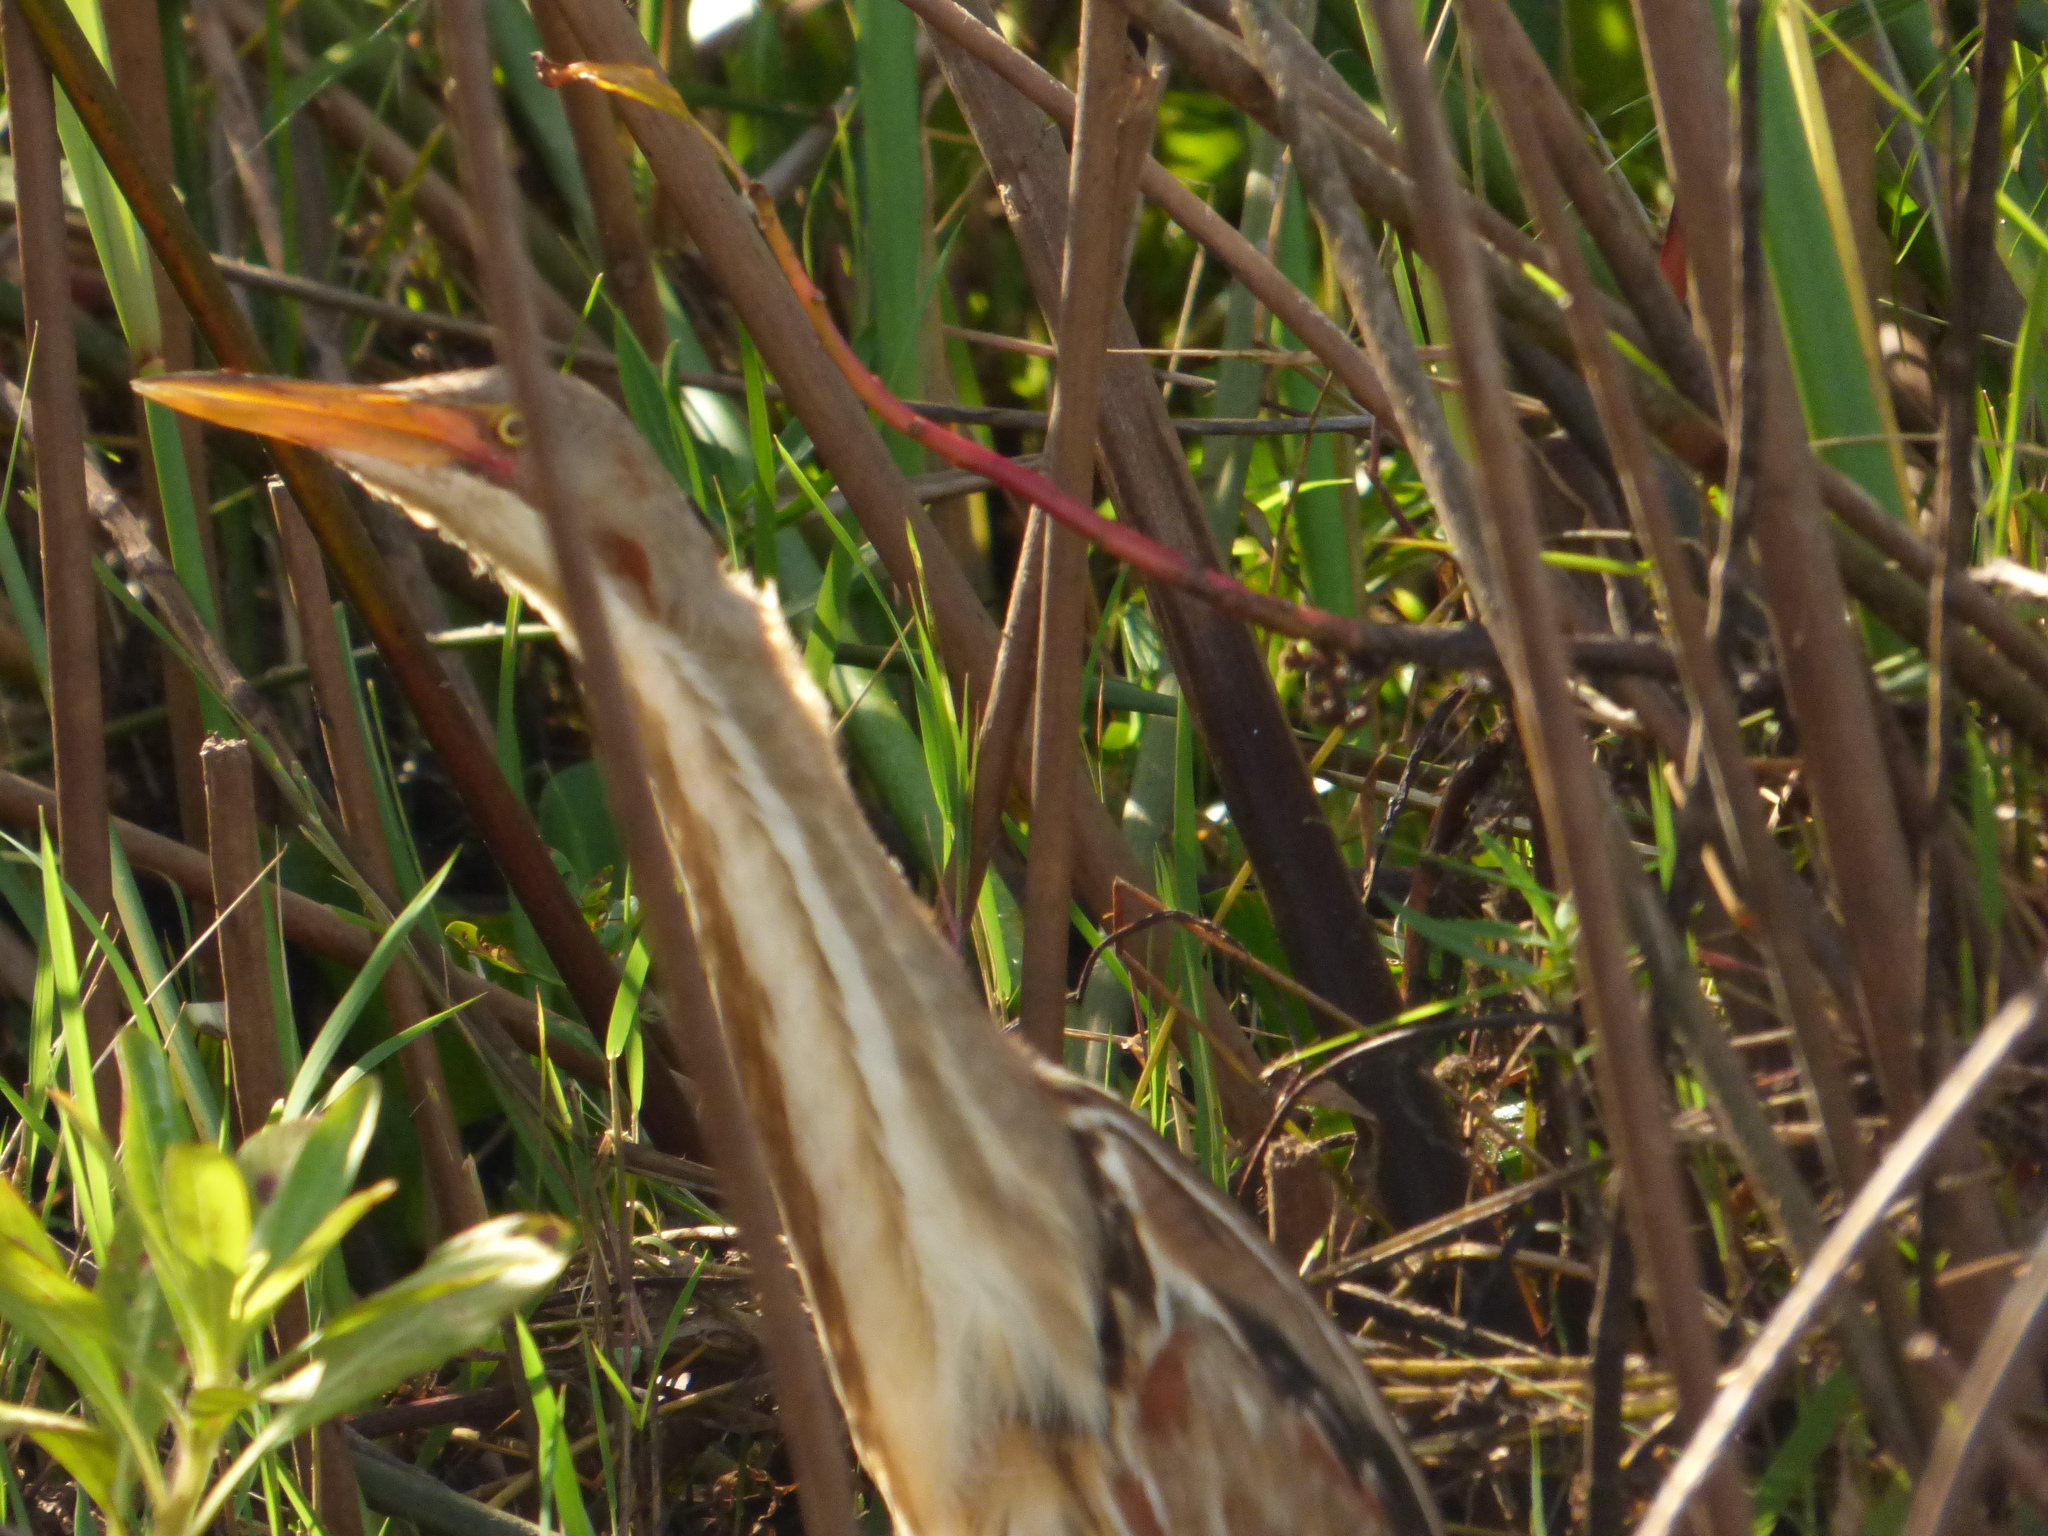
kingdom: Animalia
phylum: Chordata
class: Aves
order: Pelecaniformes
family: Ardeidae
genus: Ixobrychus
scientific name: Ixobrychus involucris
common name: Stripe-backed bittern
